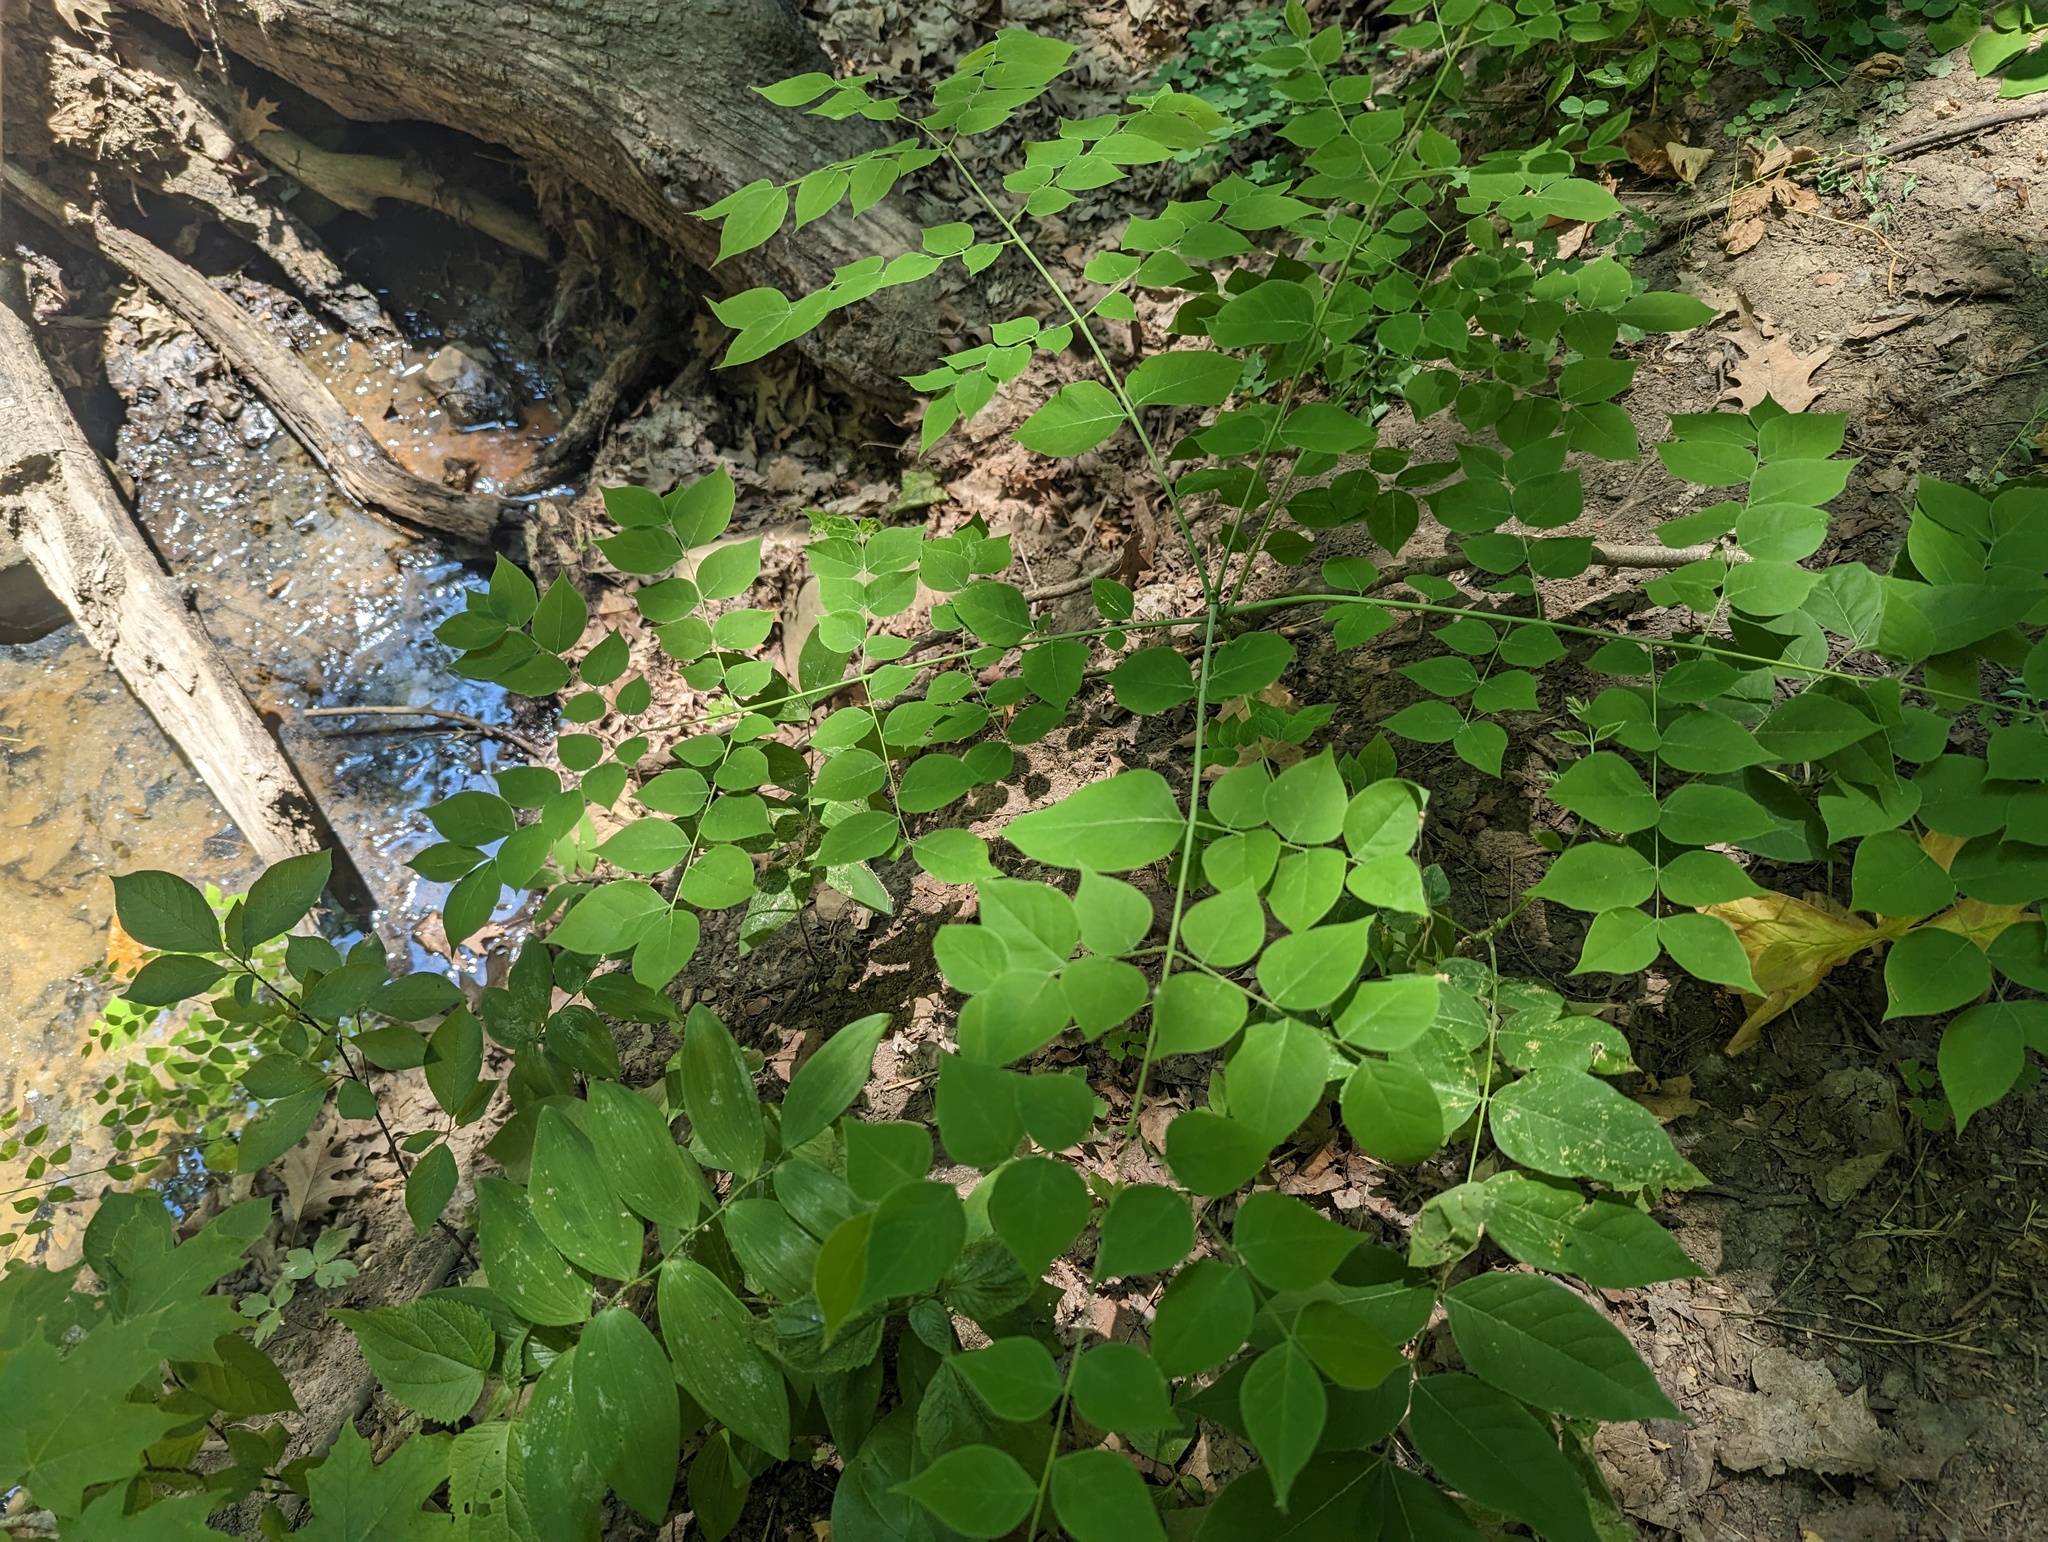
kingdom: Plantae
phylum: Tracheophyta
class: Magnoliopsida
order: Fabales
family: Fabaceae
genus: Gymnocladus
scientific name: Gymnocladus dioicus
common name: Kentucky coffee-tree
